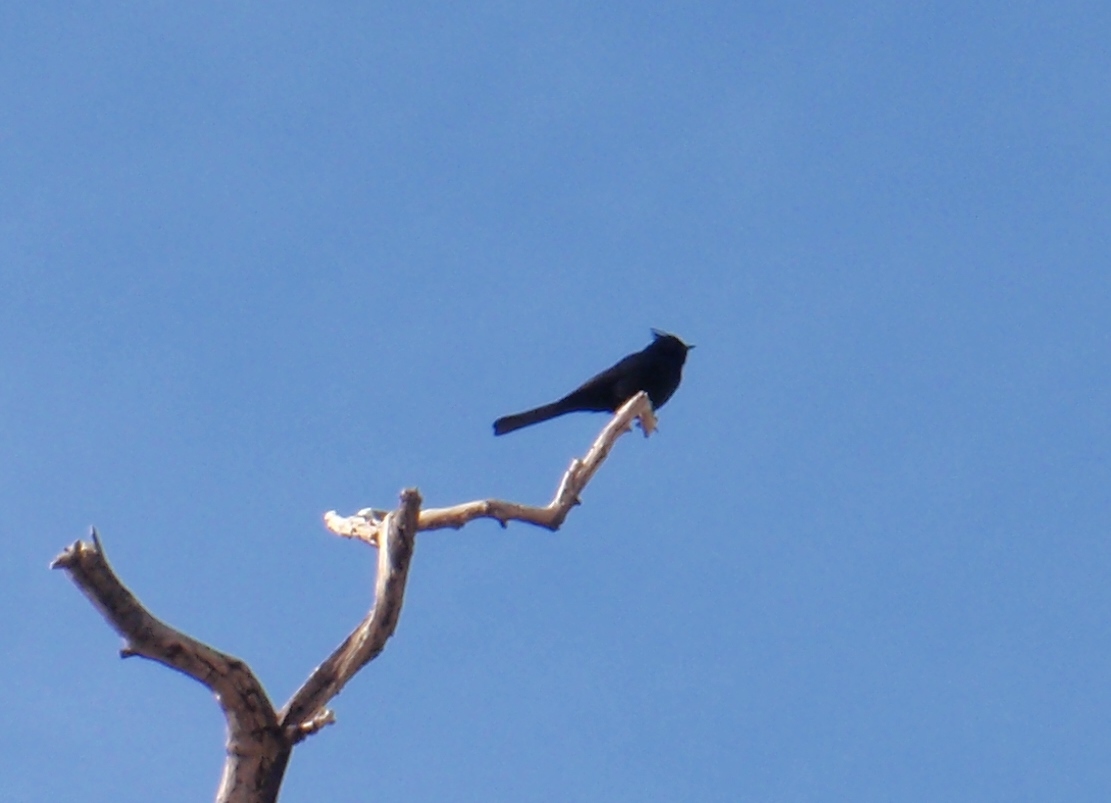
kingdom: Animalia
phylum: Chordata
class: Aves
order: Passeriformes
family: Ptilogonatidae
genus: Phainopepla
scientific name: Phainopepla nitens
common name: Phainopepla
